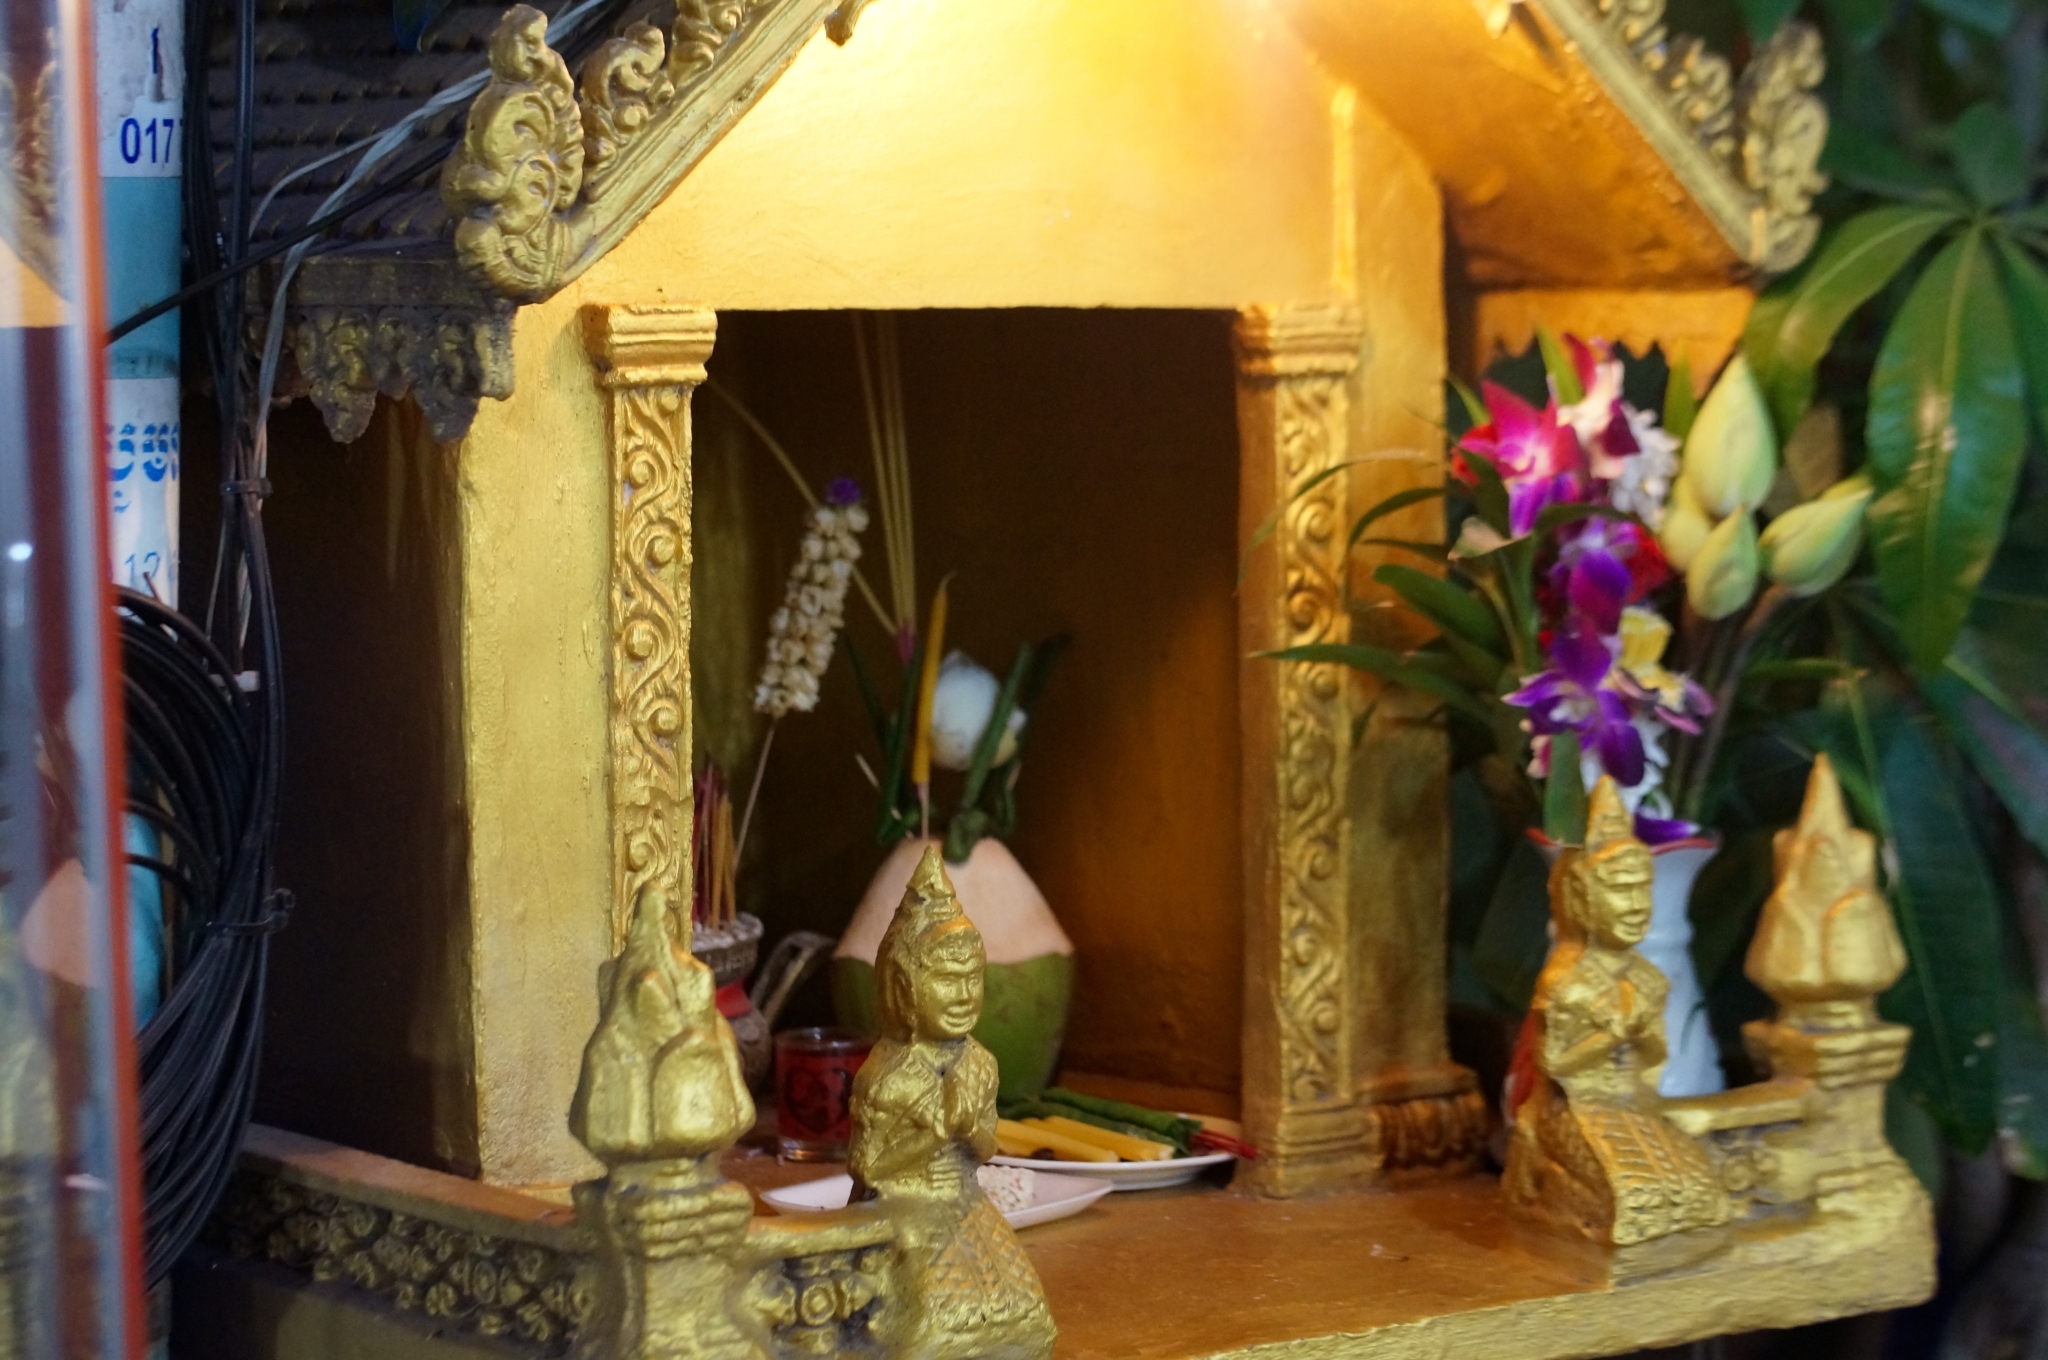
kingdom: Animalia
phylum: Arthropoda
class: Insecta
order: Hymenoptera
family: Formicidae
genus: Paratrechina
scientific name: Paratrechina longicornis
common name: Longhorned crazy ant
